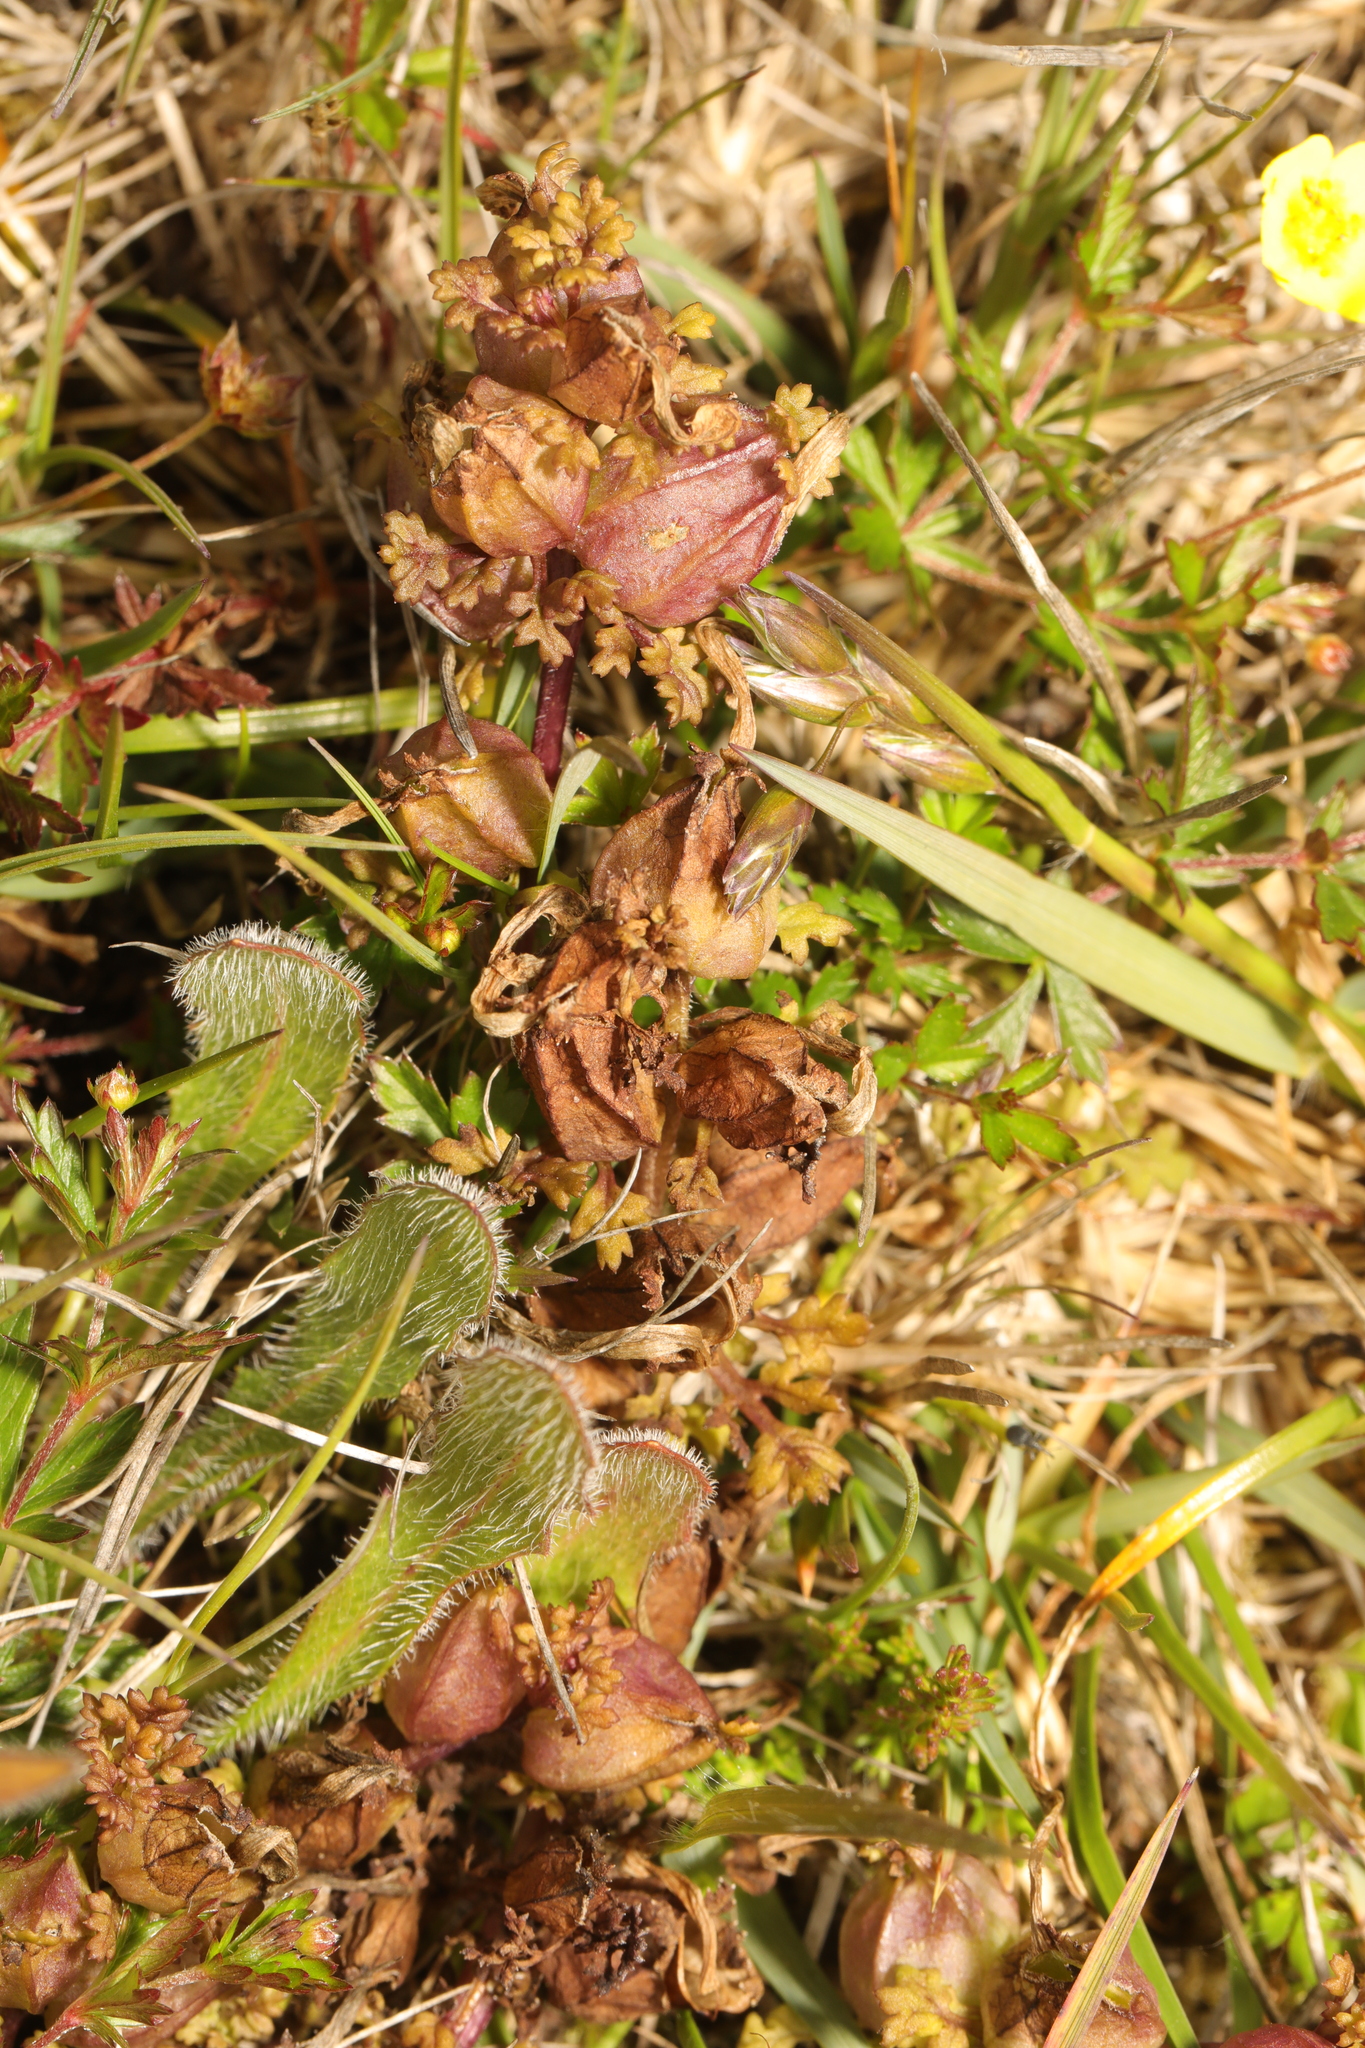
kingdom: Plantae
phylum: Tracheophyta
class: Magnoliopsida
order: Lamiales
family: Orobanchaceae
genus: Pedicularis
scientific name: Pedicularis sylvatica
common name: Lousewort
